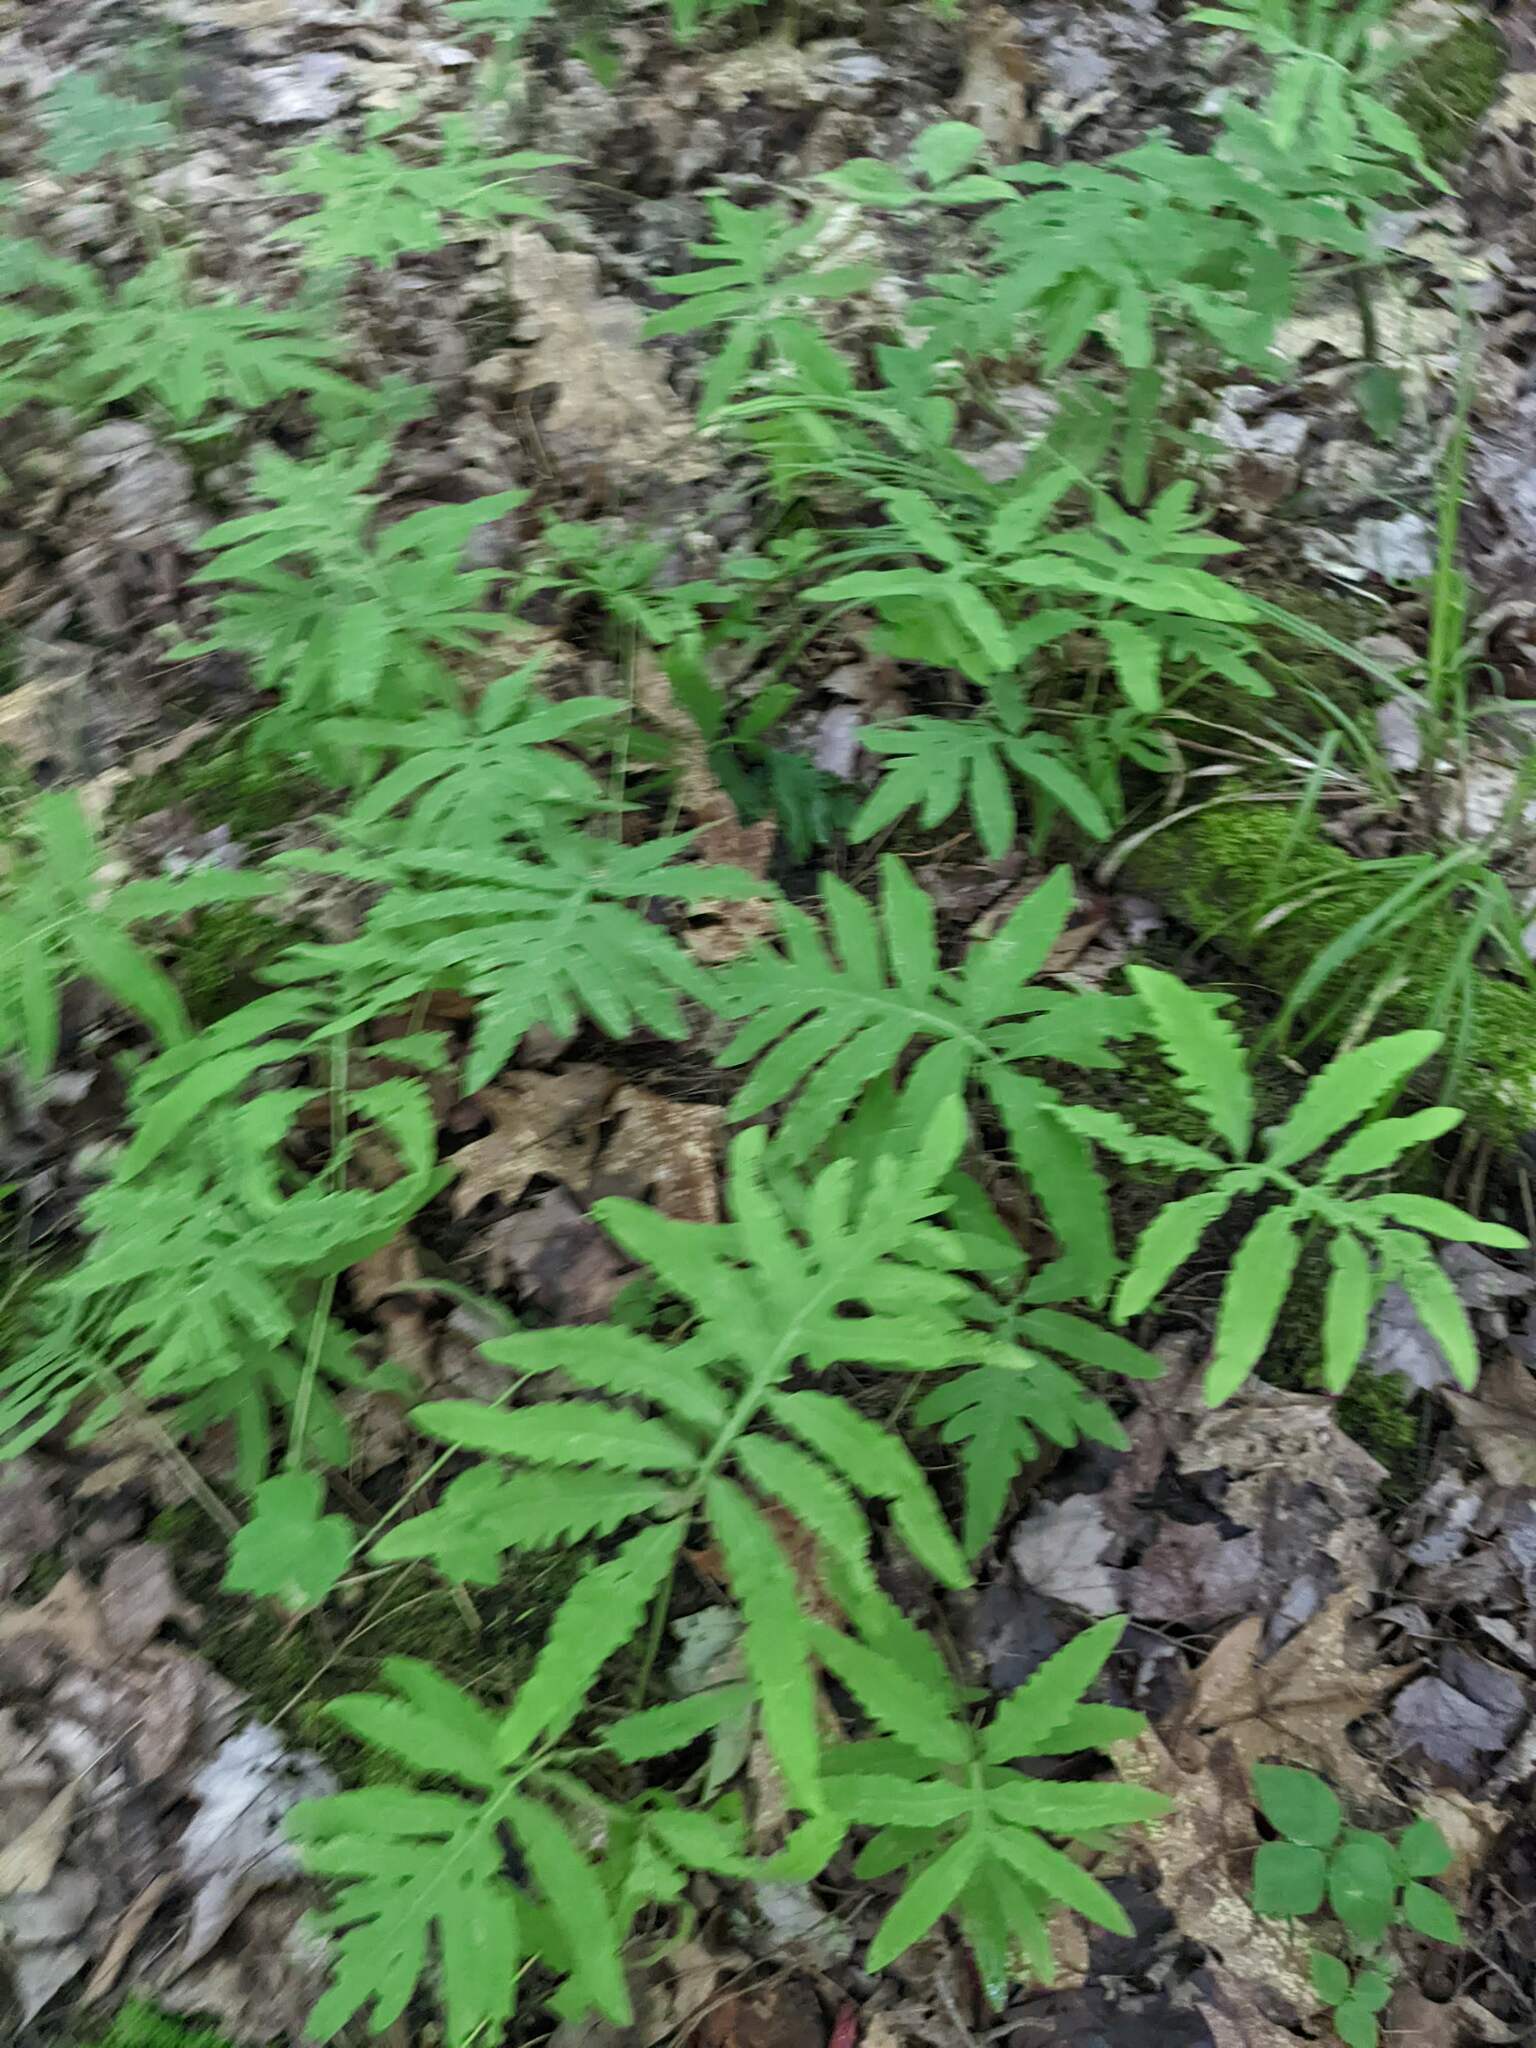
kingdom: Plantae
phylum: Tracheophyta
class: Polypodiopsida
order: Polypodiales
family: Onocleaceae
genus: Onoclea
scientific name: Onoclea sensibilis
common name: Sensitive fern
